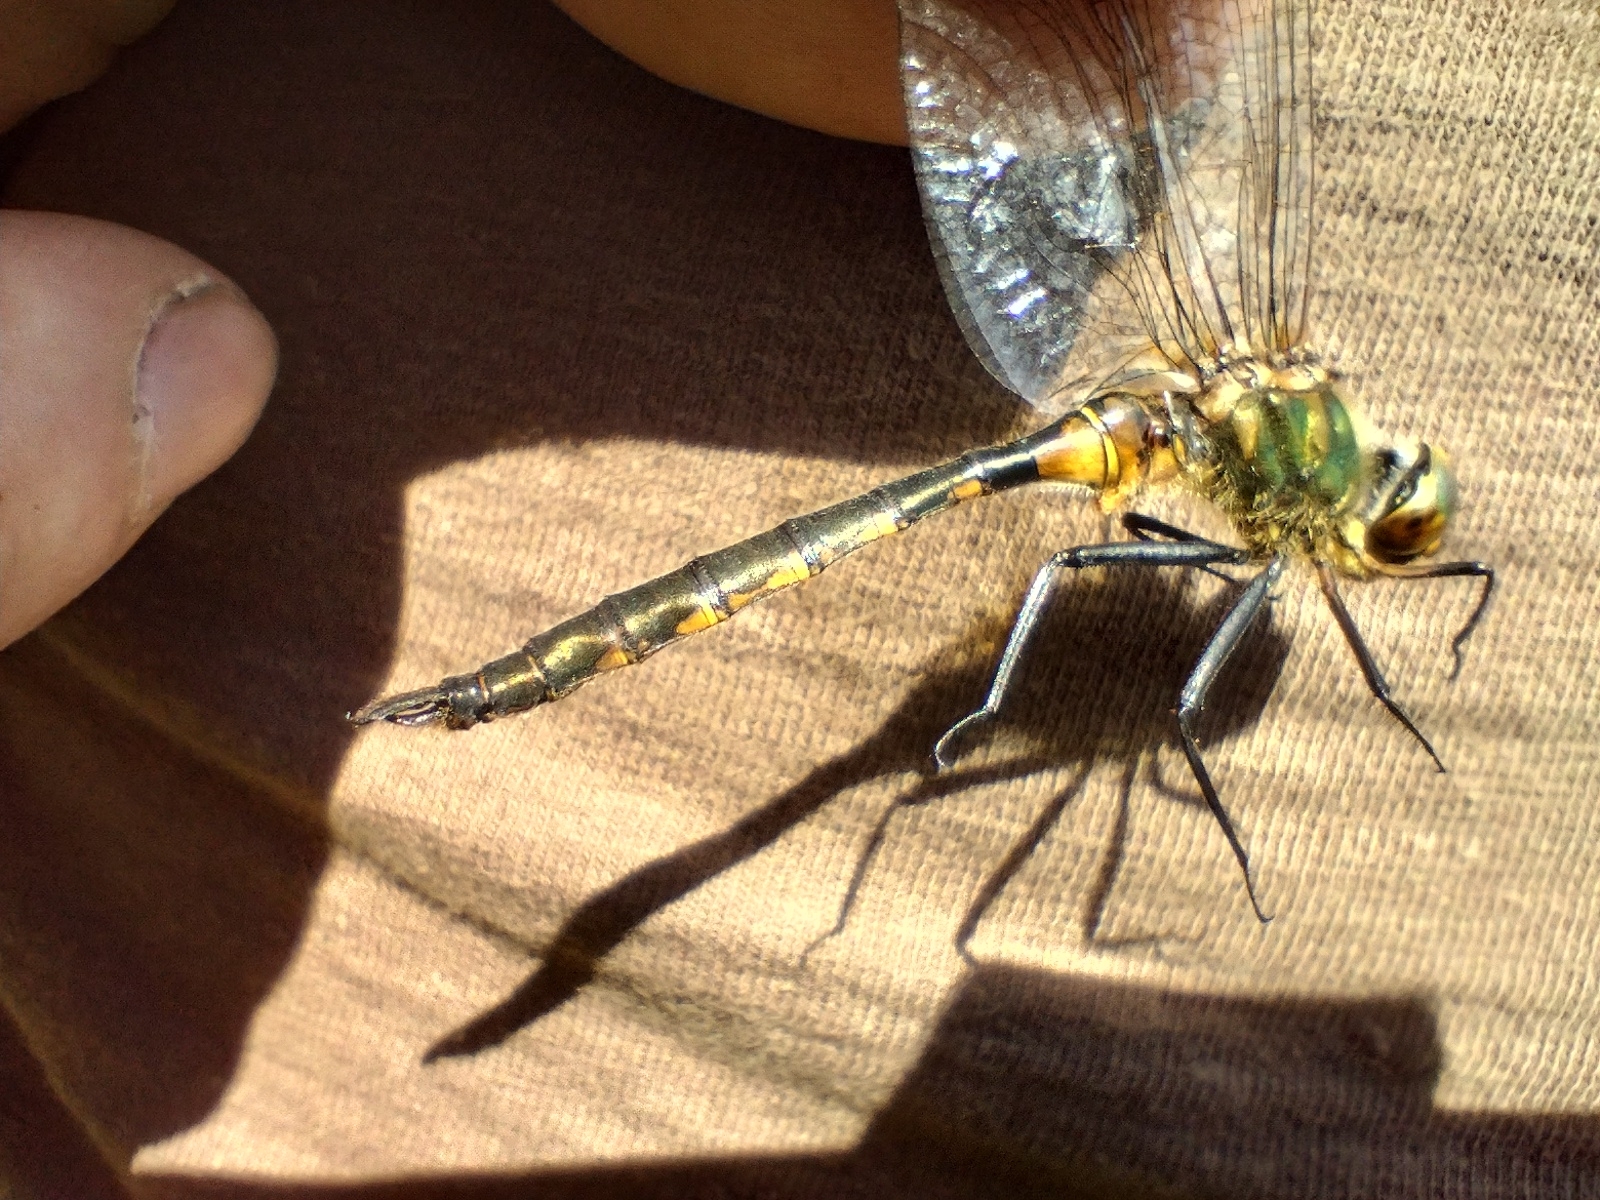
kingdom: Animalia
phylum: Arthropoda
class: Insecta
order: Odonata
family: Corduliidae
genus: Somatochlora
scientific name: Somatochlora flavomaculata
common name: Yellow-spotted emerald
